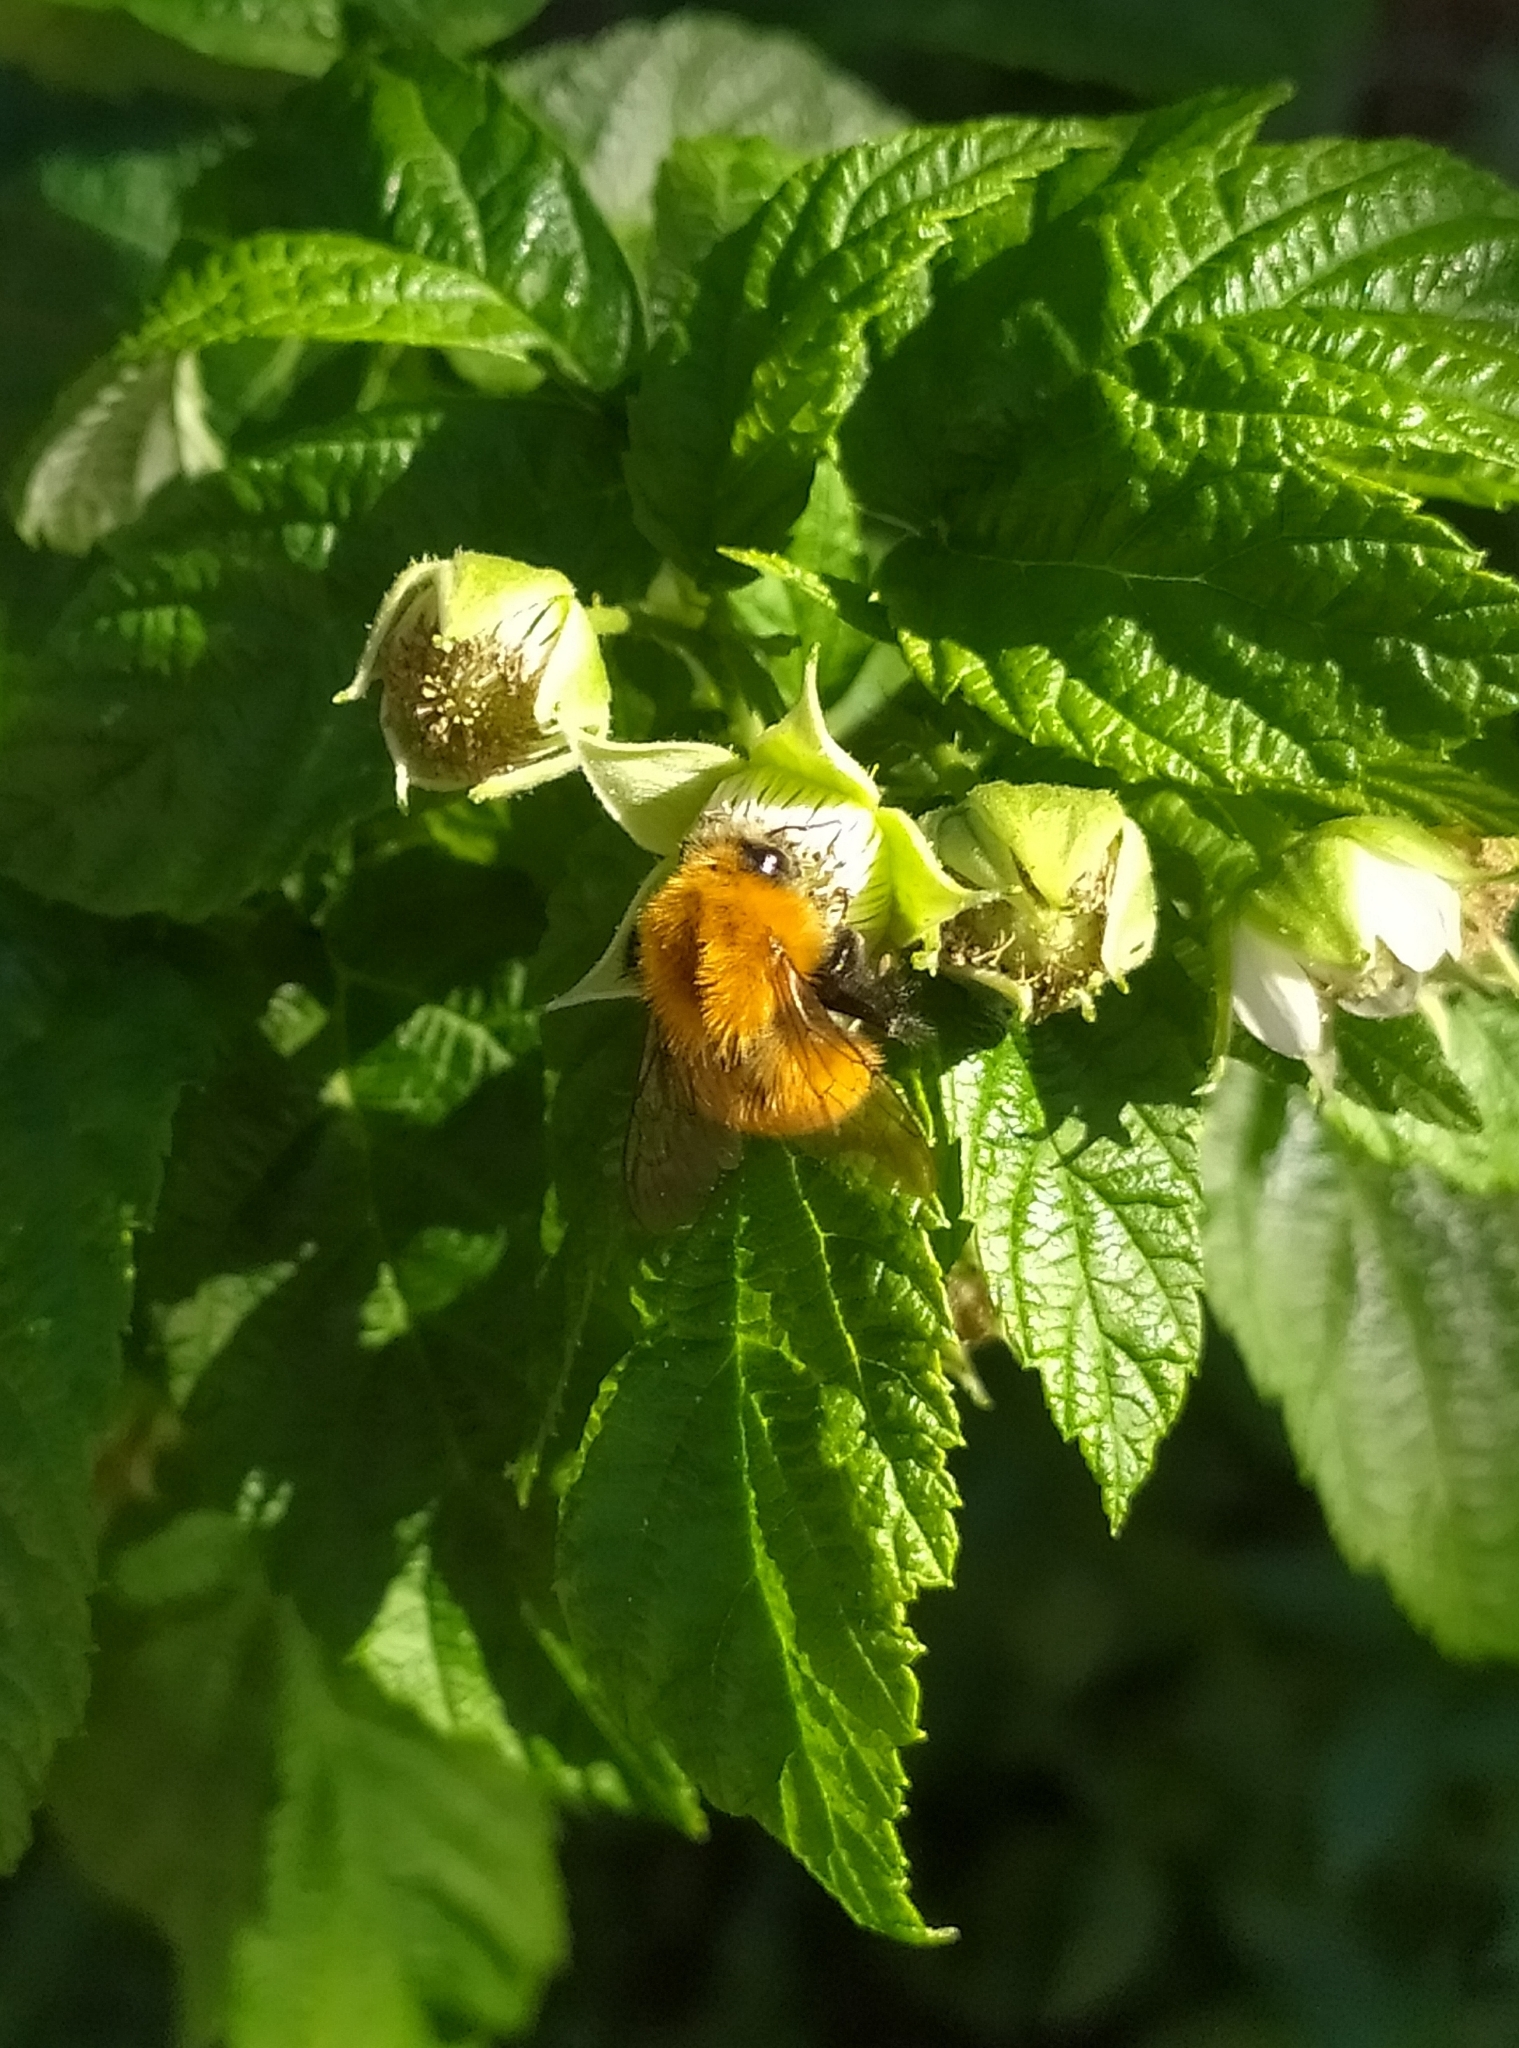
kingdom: Animalia
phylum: Arthropoda
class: Insecta
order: Hymenoptera
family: Apidae
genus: Bombus
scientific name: Bombus pascuorum
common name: Common carder bee
